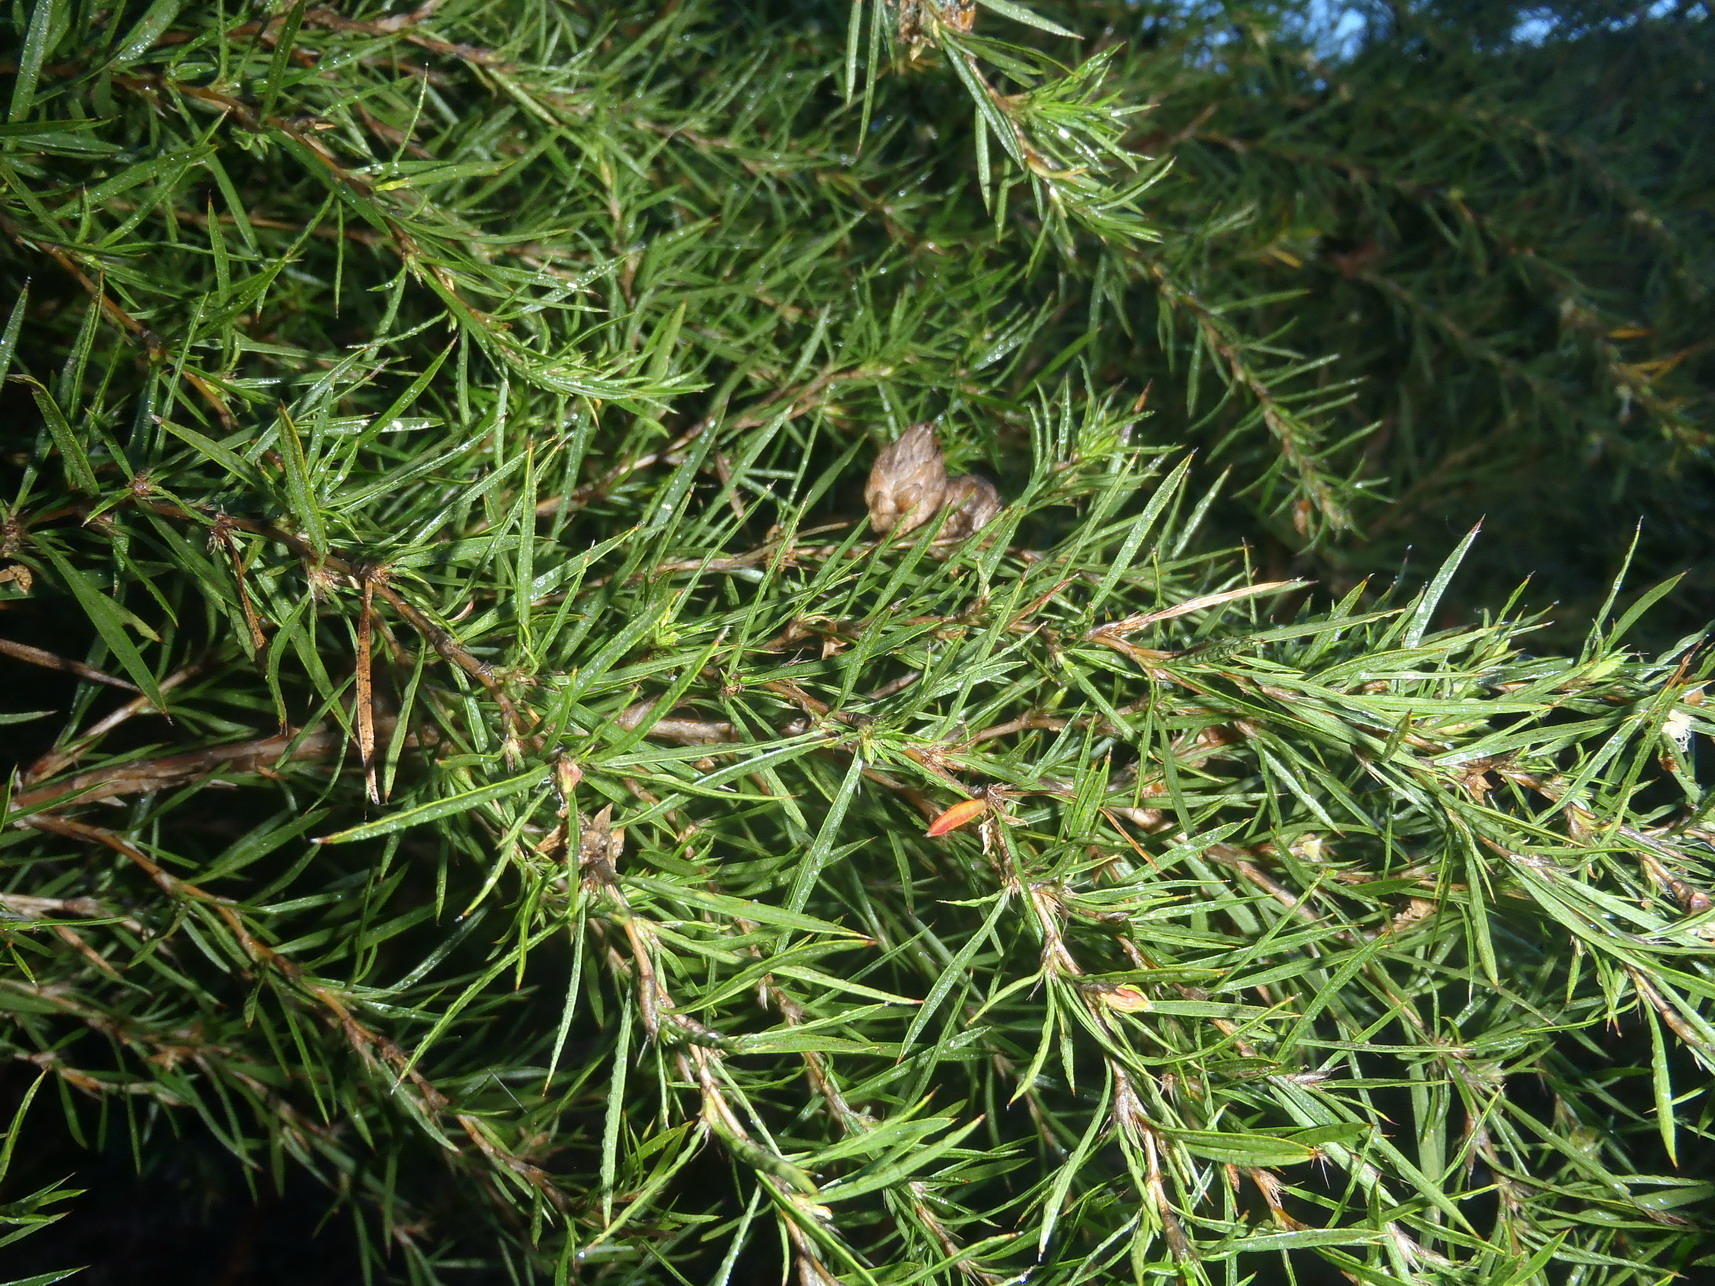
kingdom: Plantae
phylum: Tracheophyta
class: Magnoliopsida
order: Rosales
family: Rosaceae
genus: Cliffortia
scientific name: Cliffortia strobilifera
